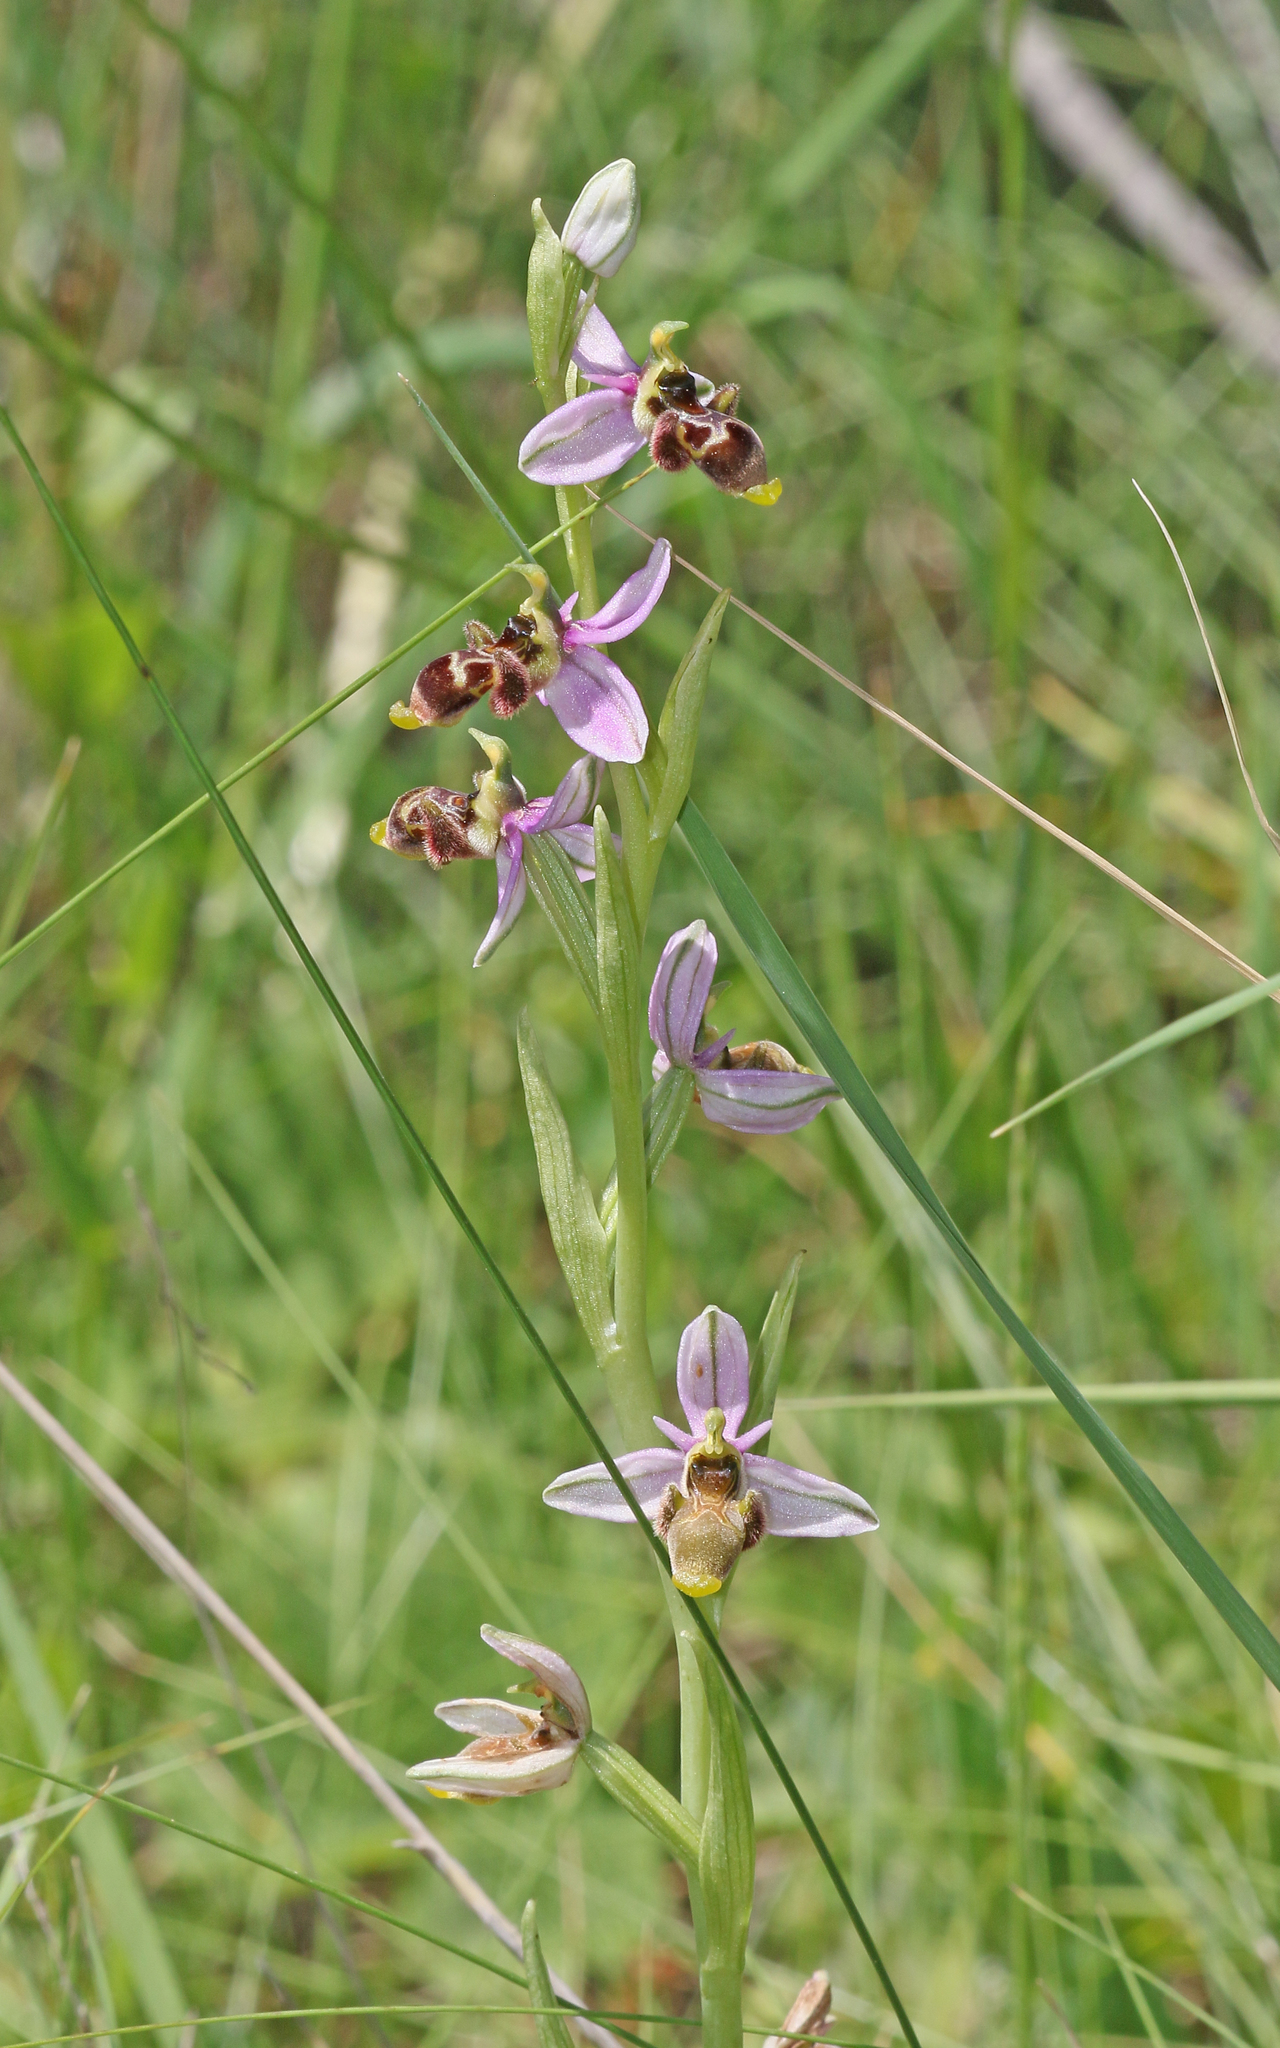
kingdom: Plantae
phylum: Tracheophyta
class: Liliopsida
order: Asparagales
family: Orchidaceae
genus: Ophrys
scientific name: Ophrys scolopax
